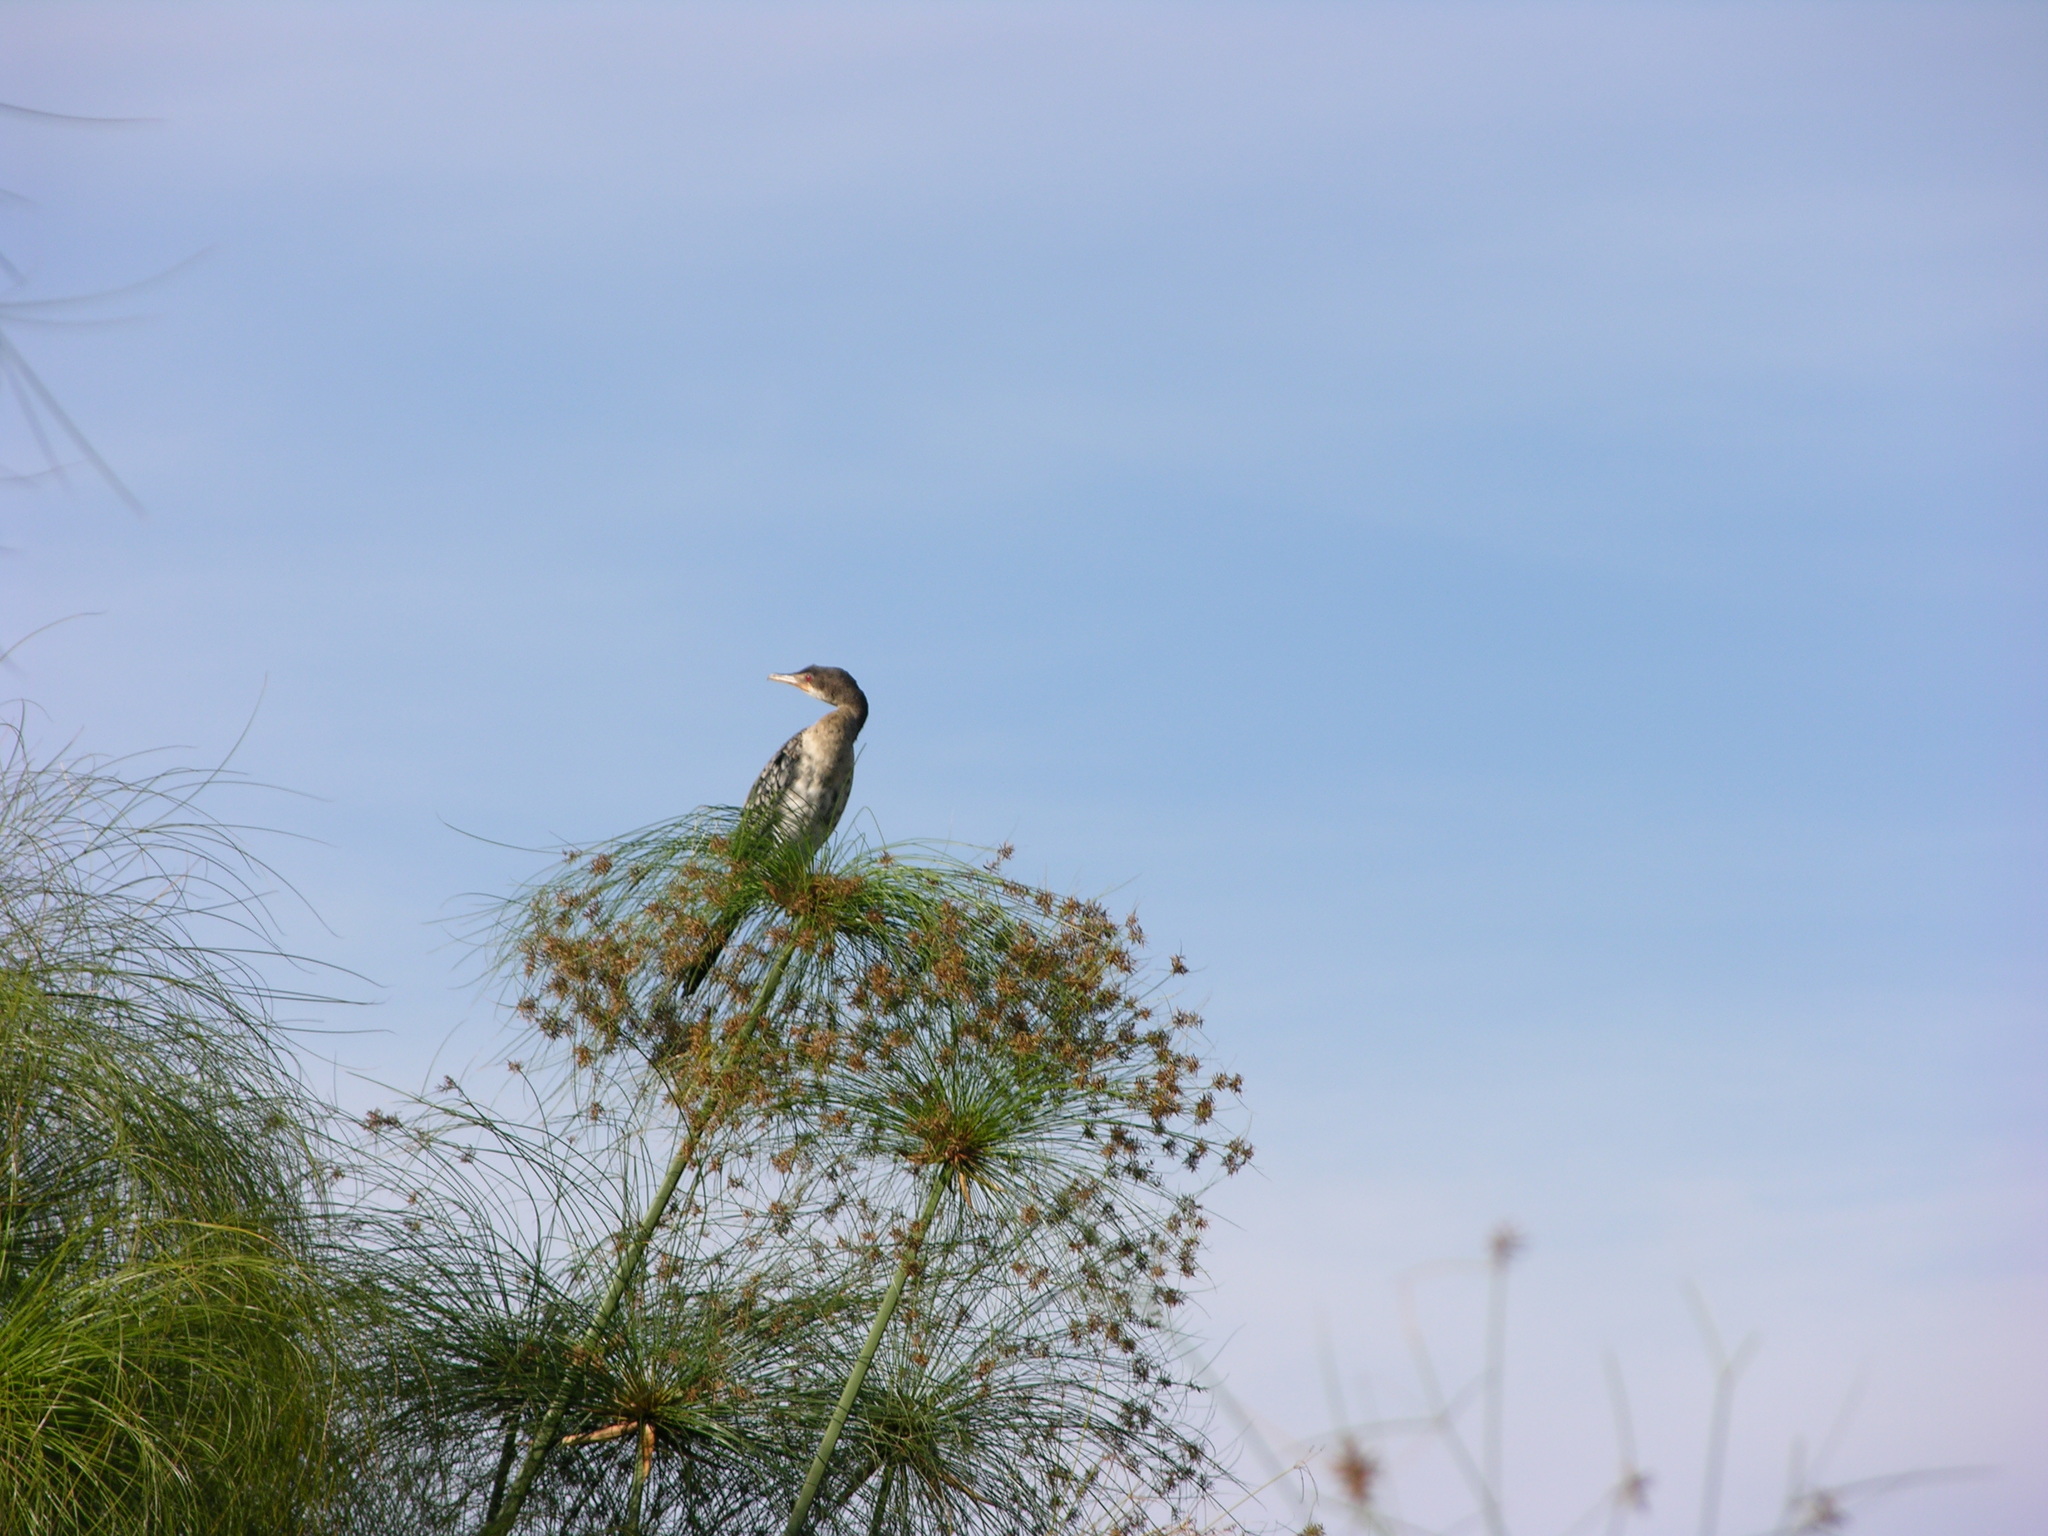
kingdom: Animalia
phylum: Chordata
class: Aves
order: Suliformes
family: Phalacrocoracidae
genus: Microcarbo
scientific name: Microcarbo africanus
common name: Long-tailed cormorant
